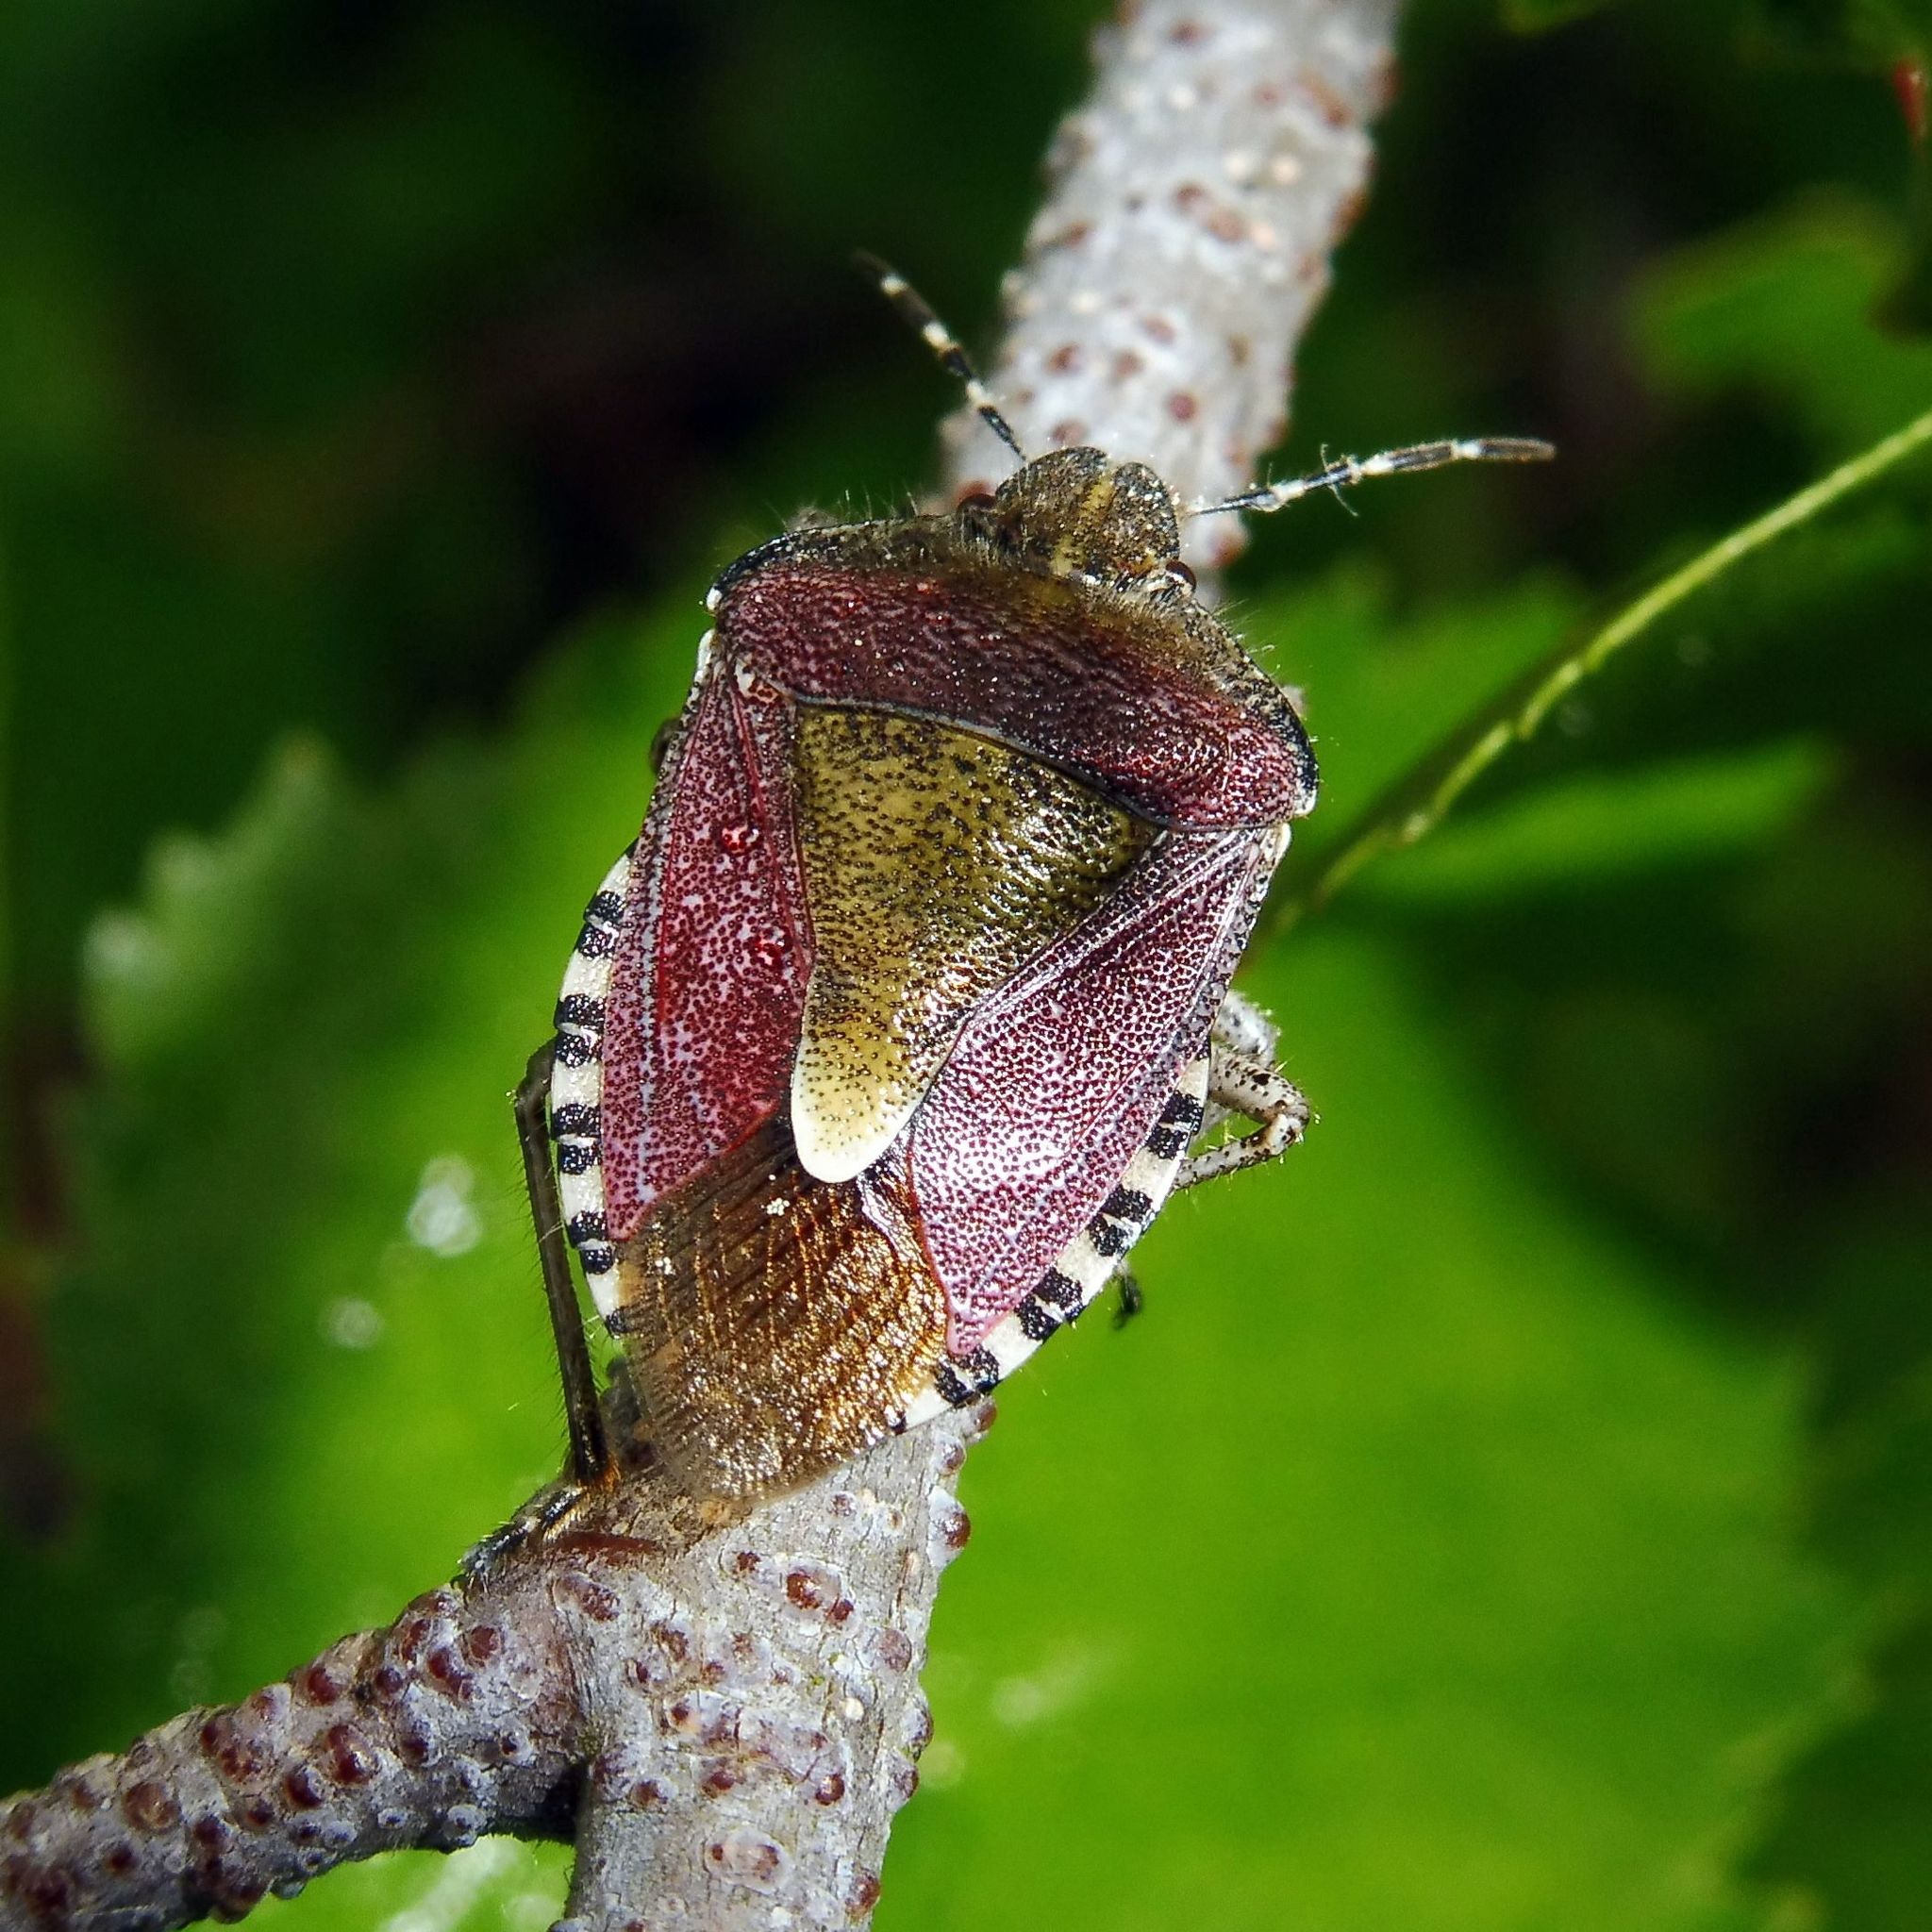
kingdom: Animalia
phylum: Arthropoda
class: Insecta
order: Hemiptera
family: Pentatomidae
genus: Dolycoris
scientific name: Dolycoris baccarum
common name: Sloe bug
